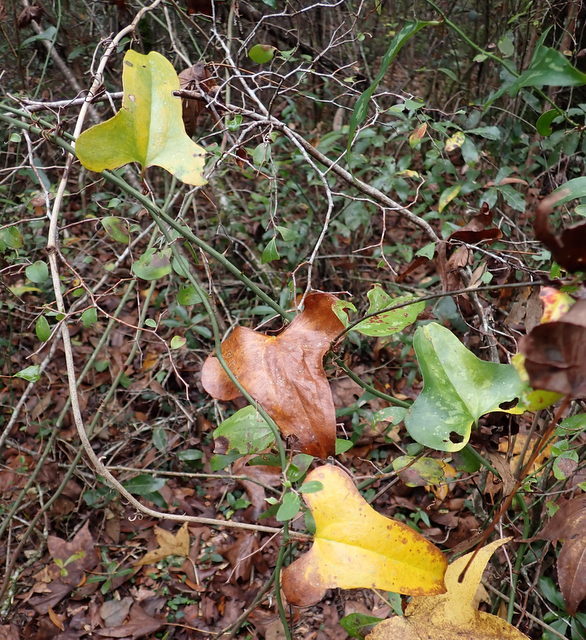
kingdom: Plantae
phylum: Tracheophyta
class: Liliopsida
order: Liliales
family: Smilacaceae
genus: Smilax
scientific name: Smilax bona-nox
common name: Catbrier
